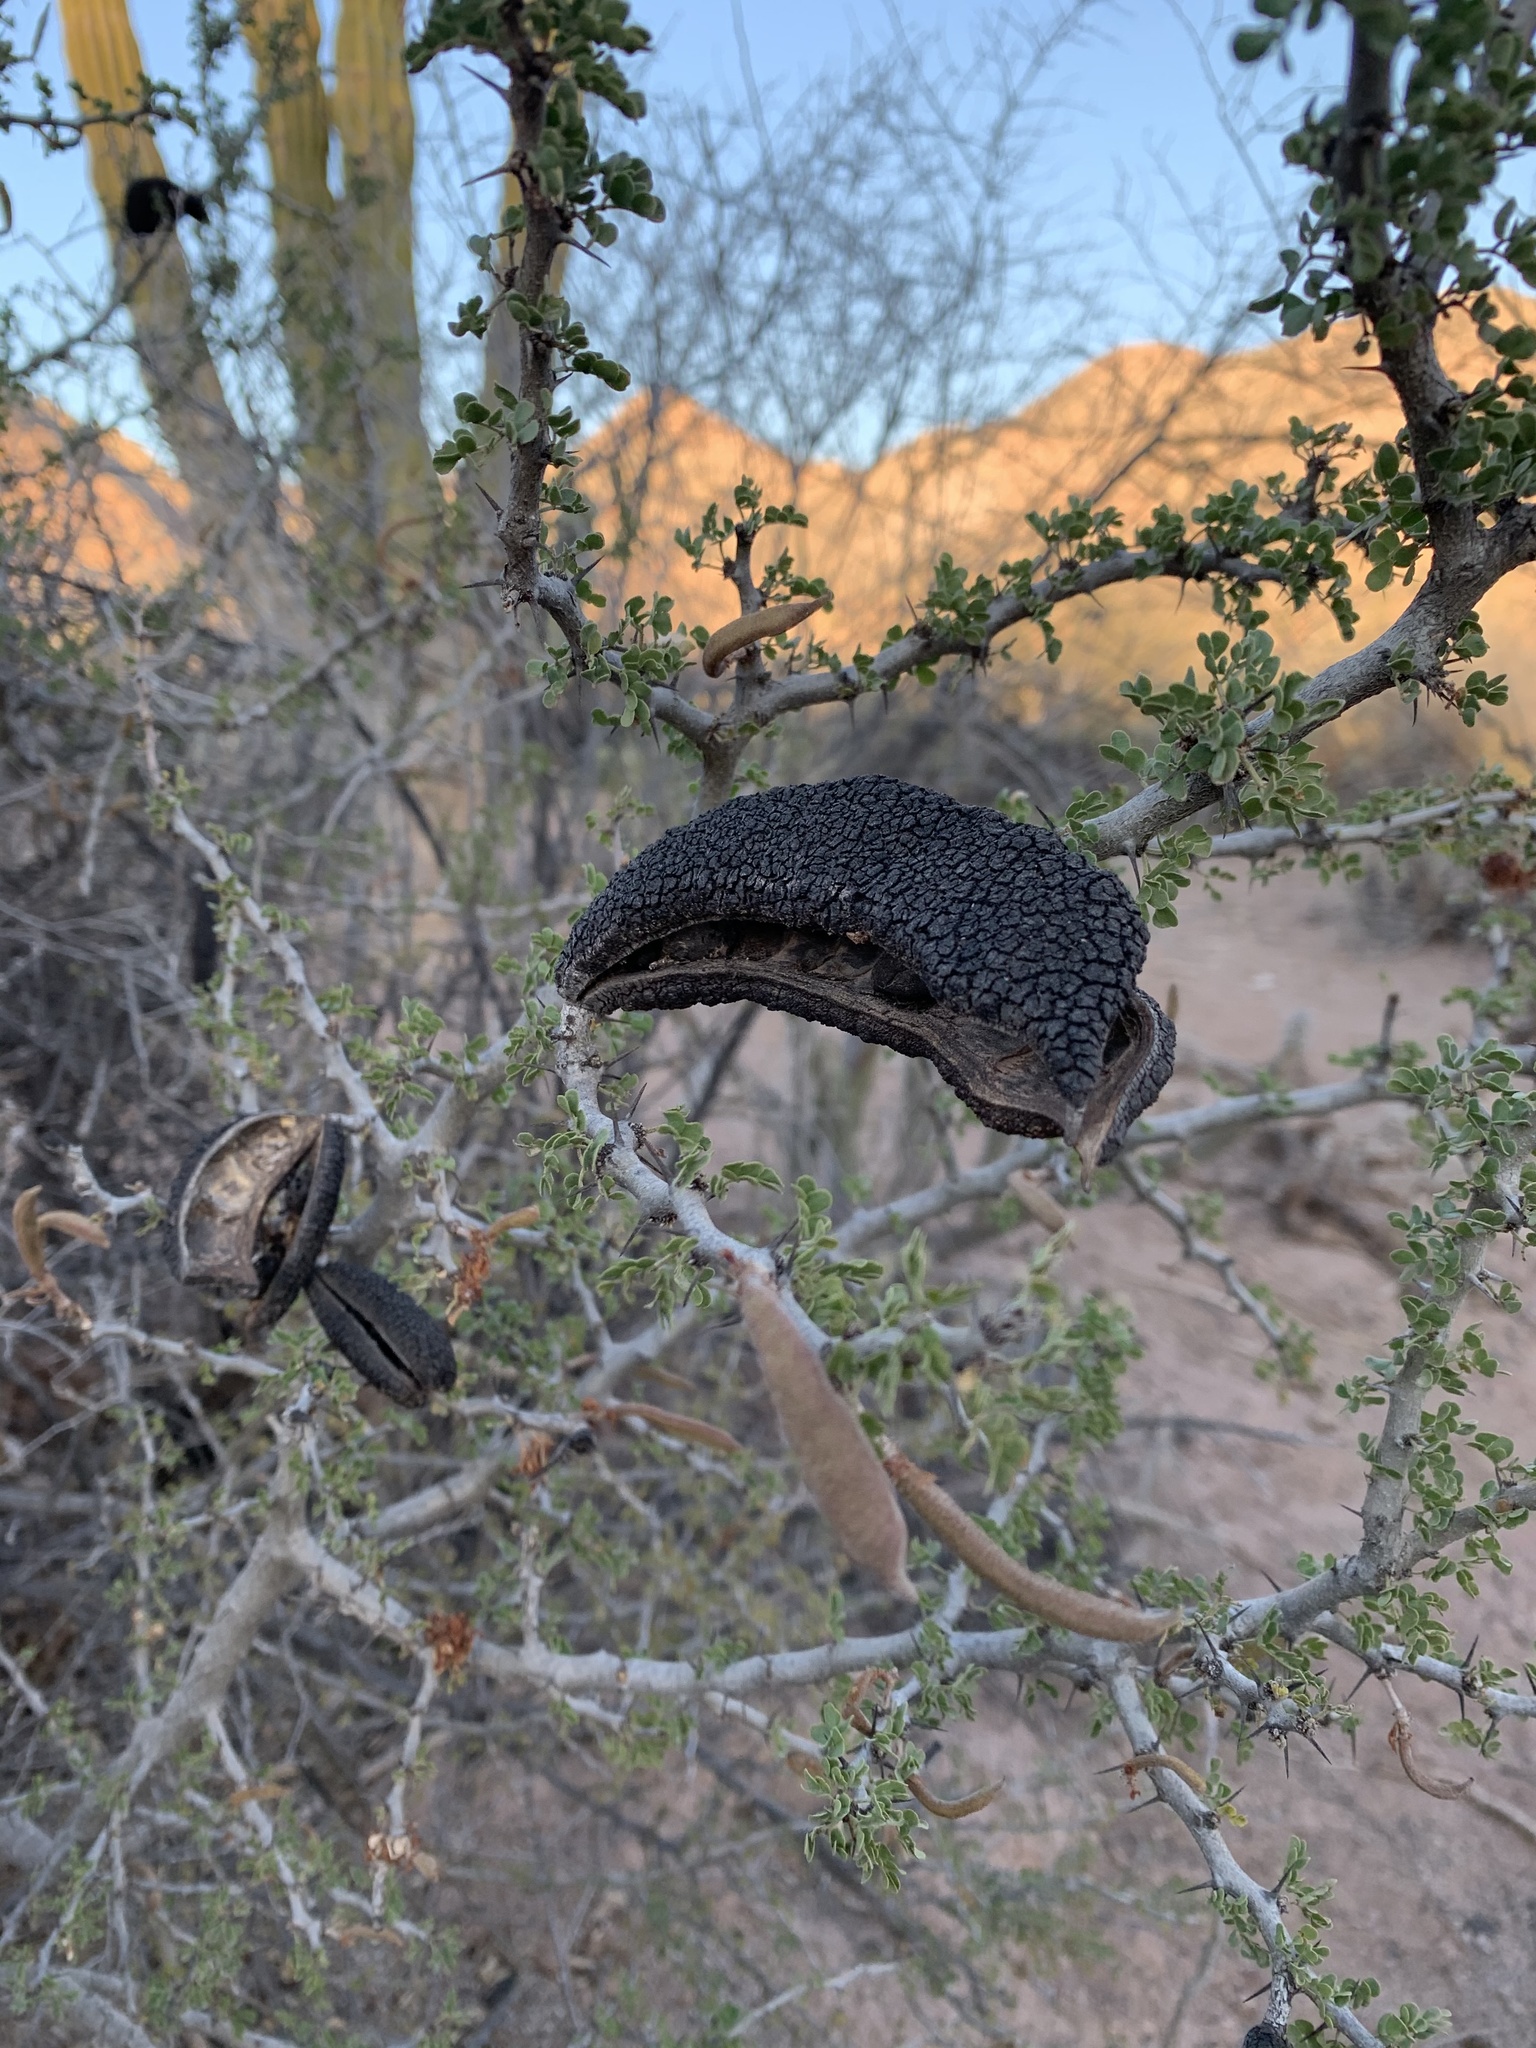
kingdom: Plantae
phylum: Tracheophyta
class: Magnoliopsida
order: Fabales
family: Fabaceae
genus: Ebenopsis
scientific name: Ebenopsis confinis
